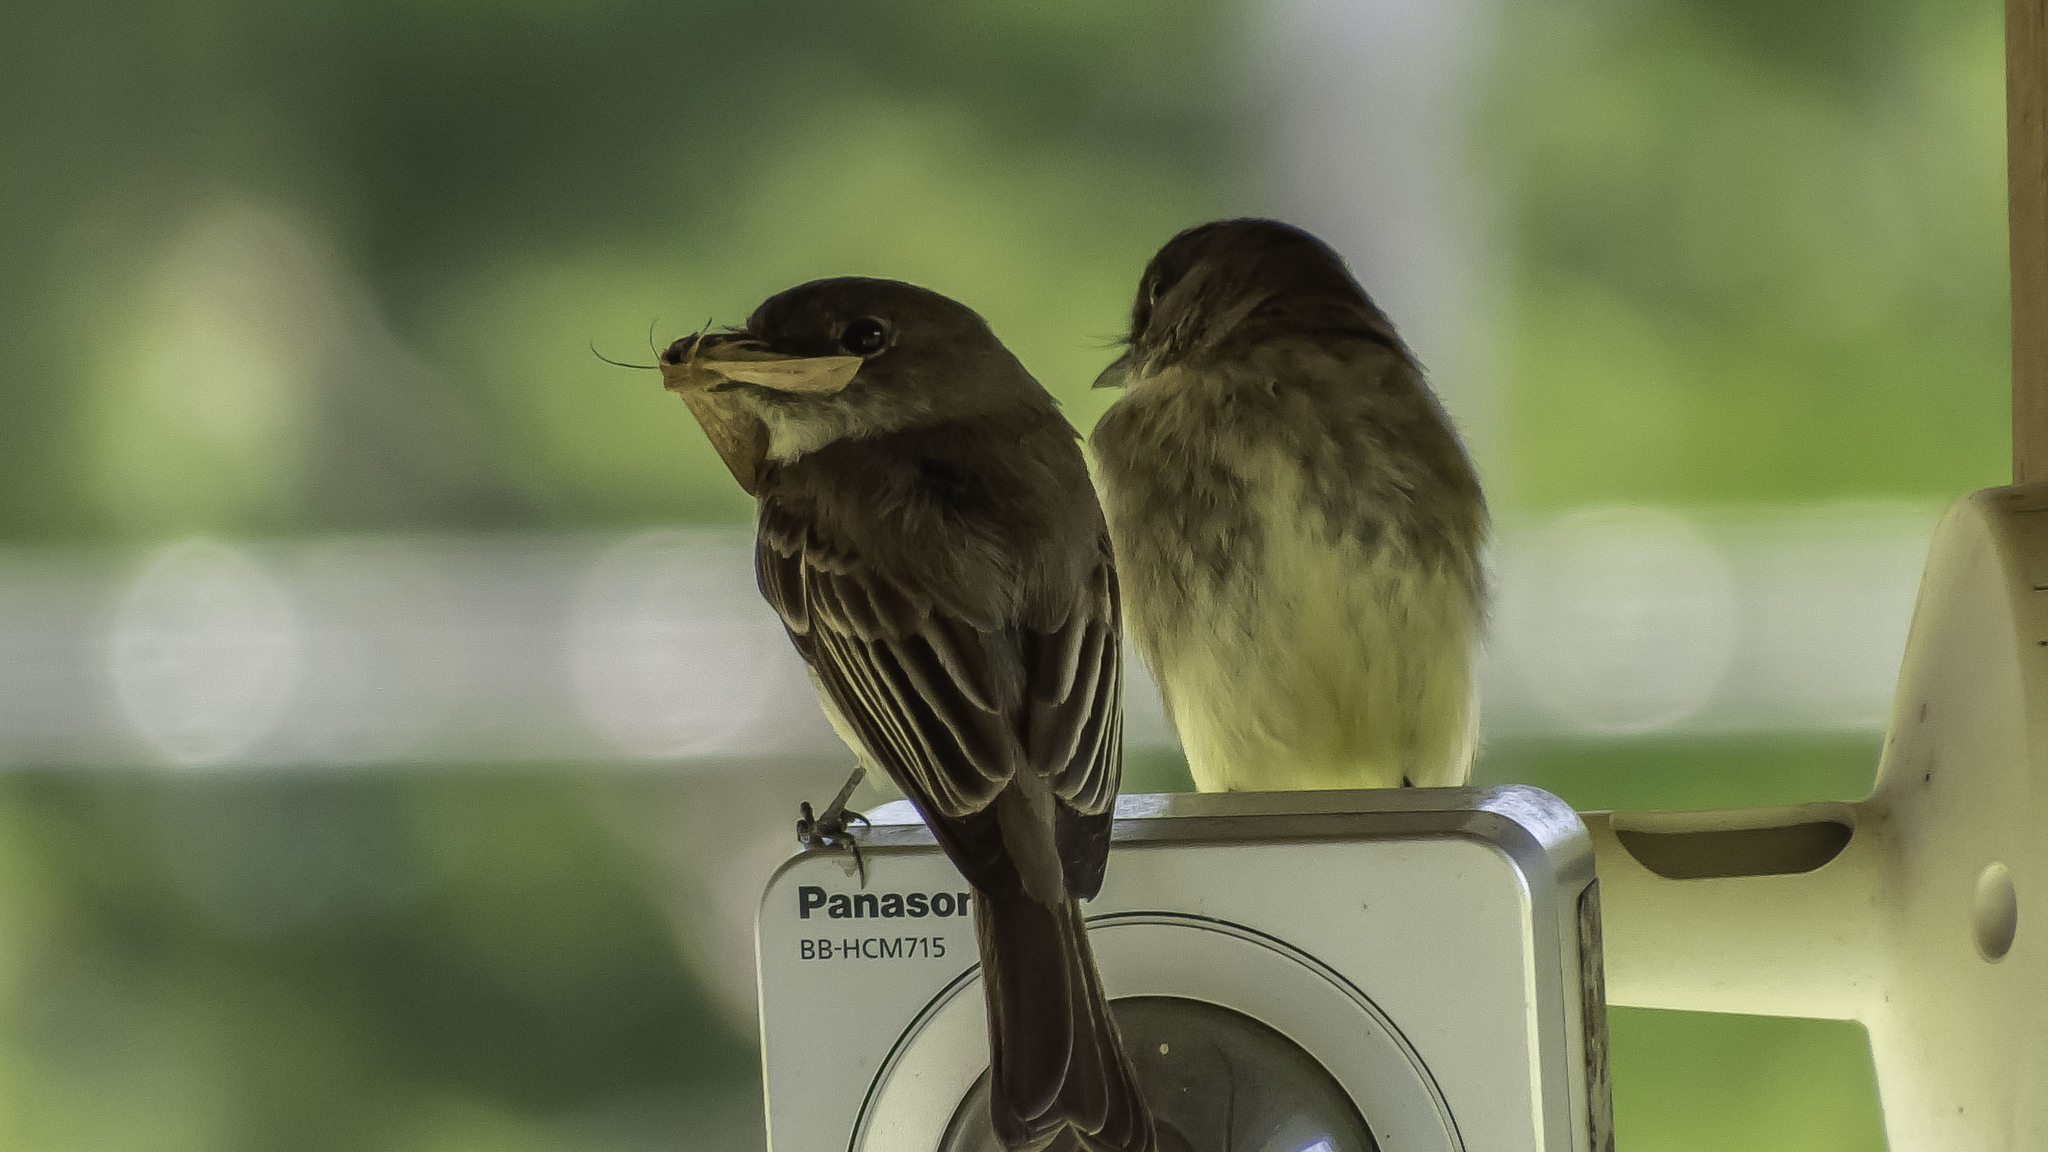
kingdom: Animalia
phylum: Chordata
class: Aves
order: Passeriformes
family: Tyrannidae
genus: Sayornis
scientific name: Sayornis phoebe
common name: Eastern phoebe
